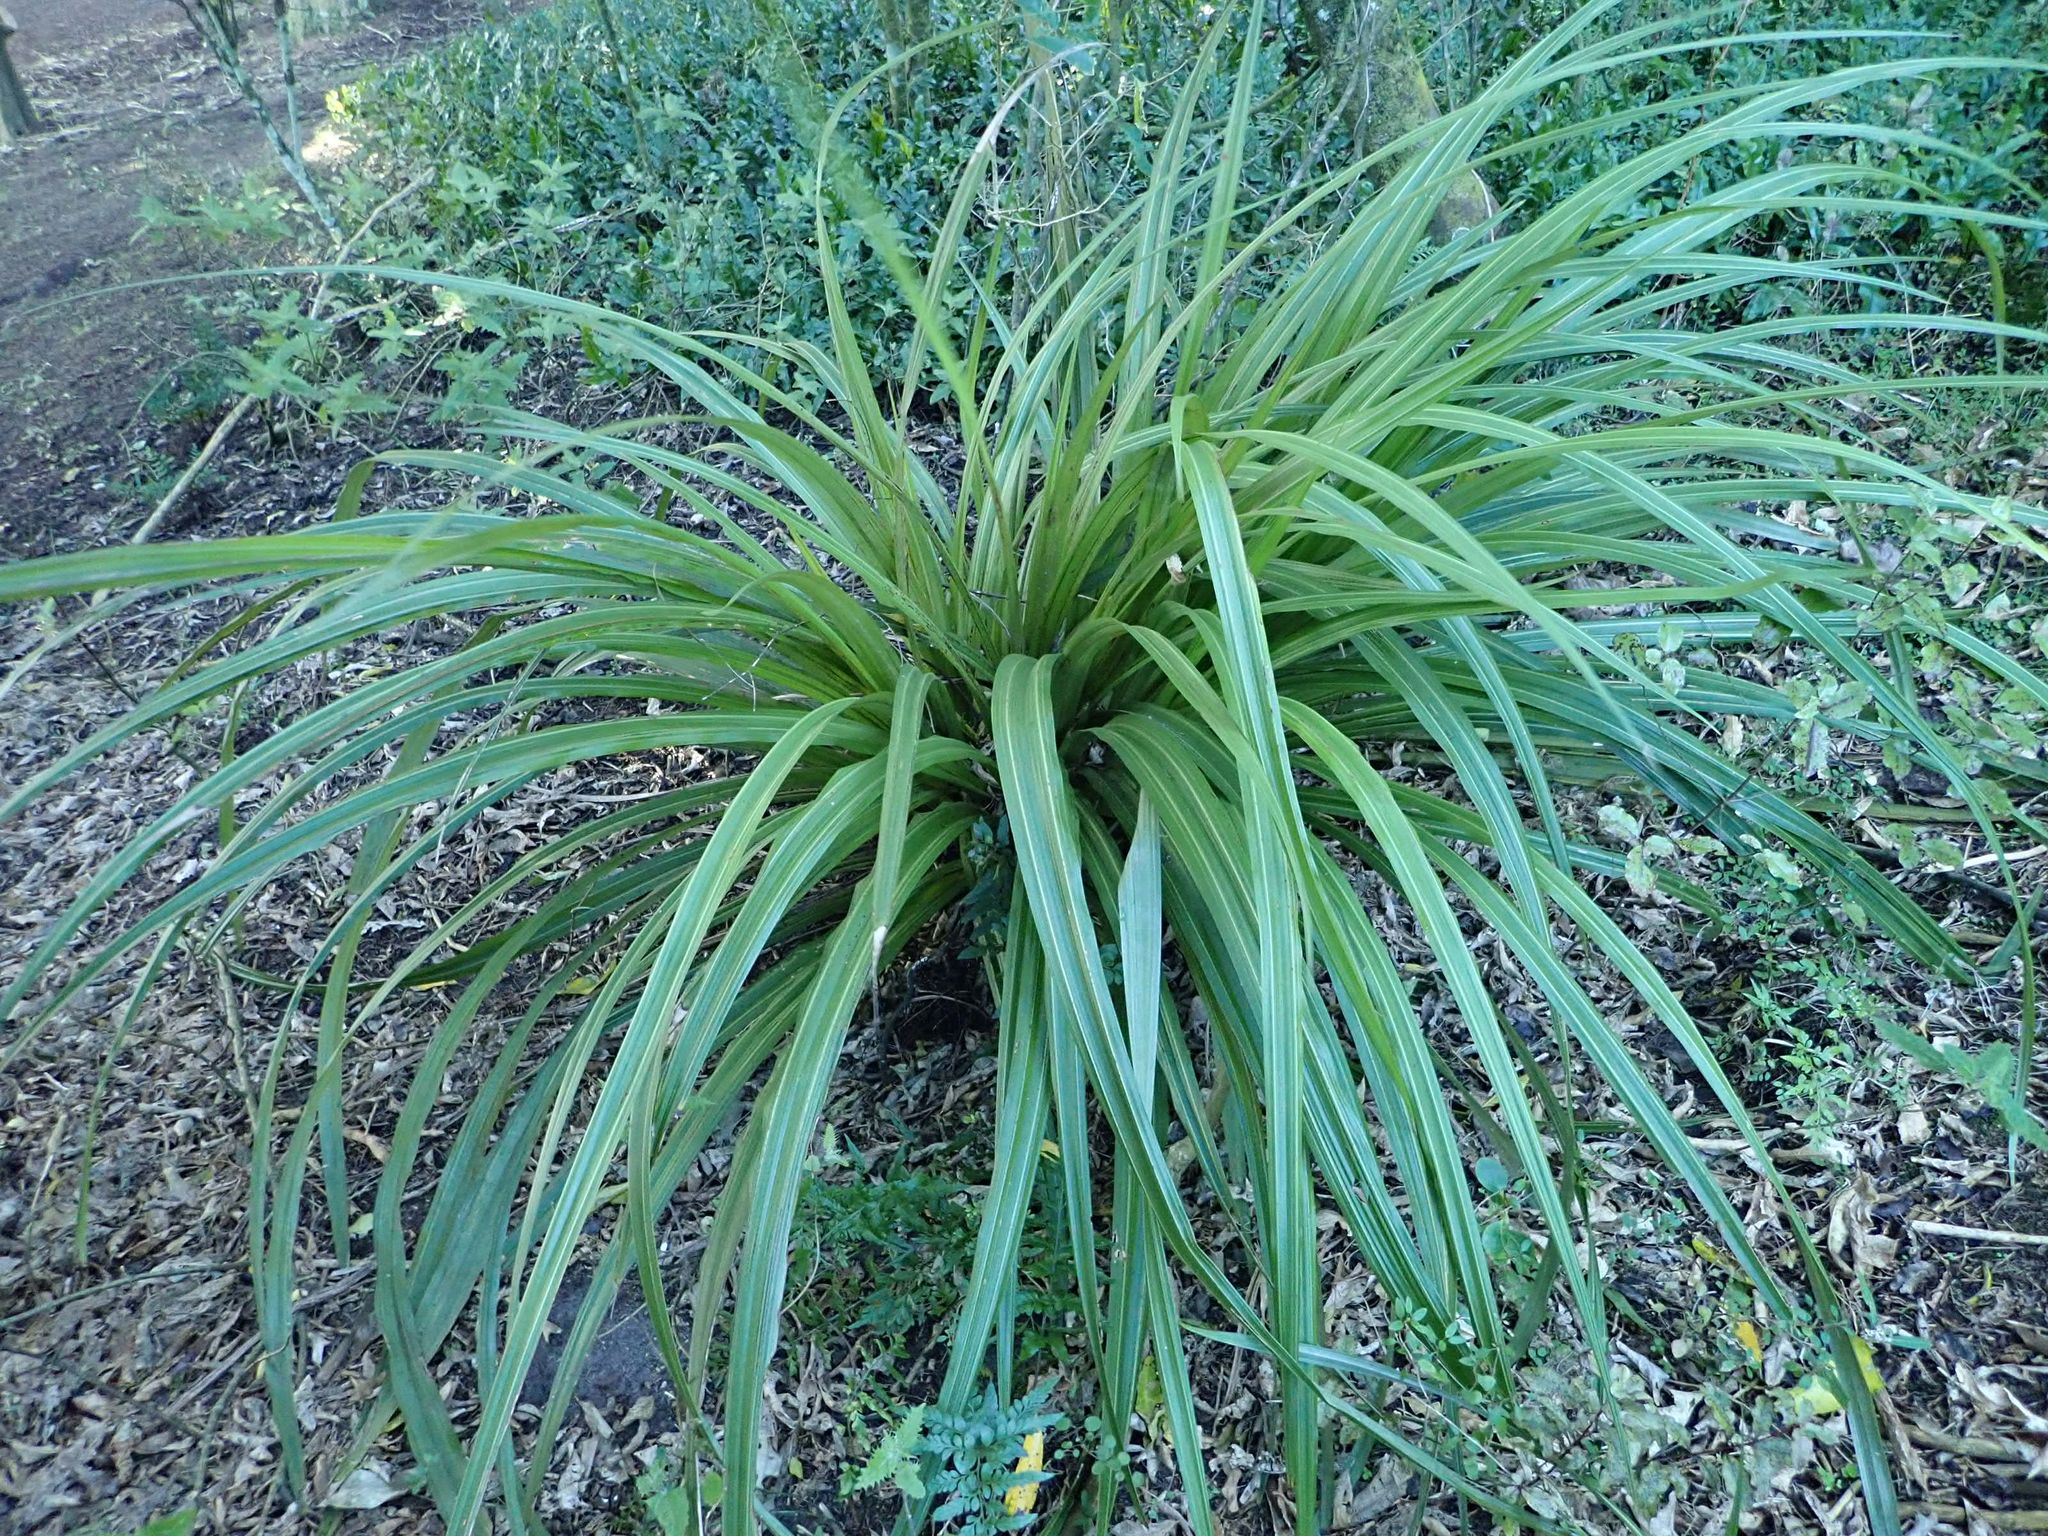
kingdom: Plantae
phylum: Tracheophyta
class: Liliopsida
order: Asparagales
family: Asteliaceae
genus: Astelia
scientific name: Astelia fragrans
